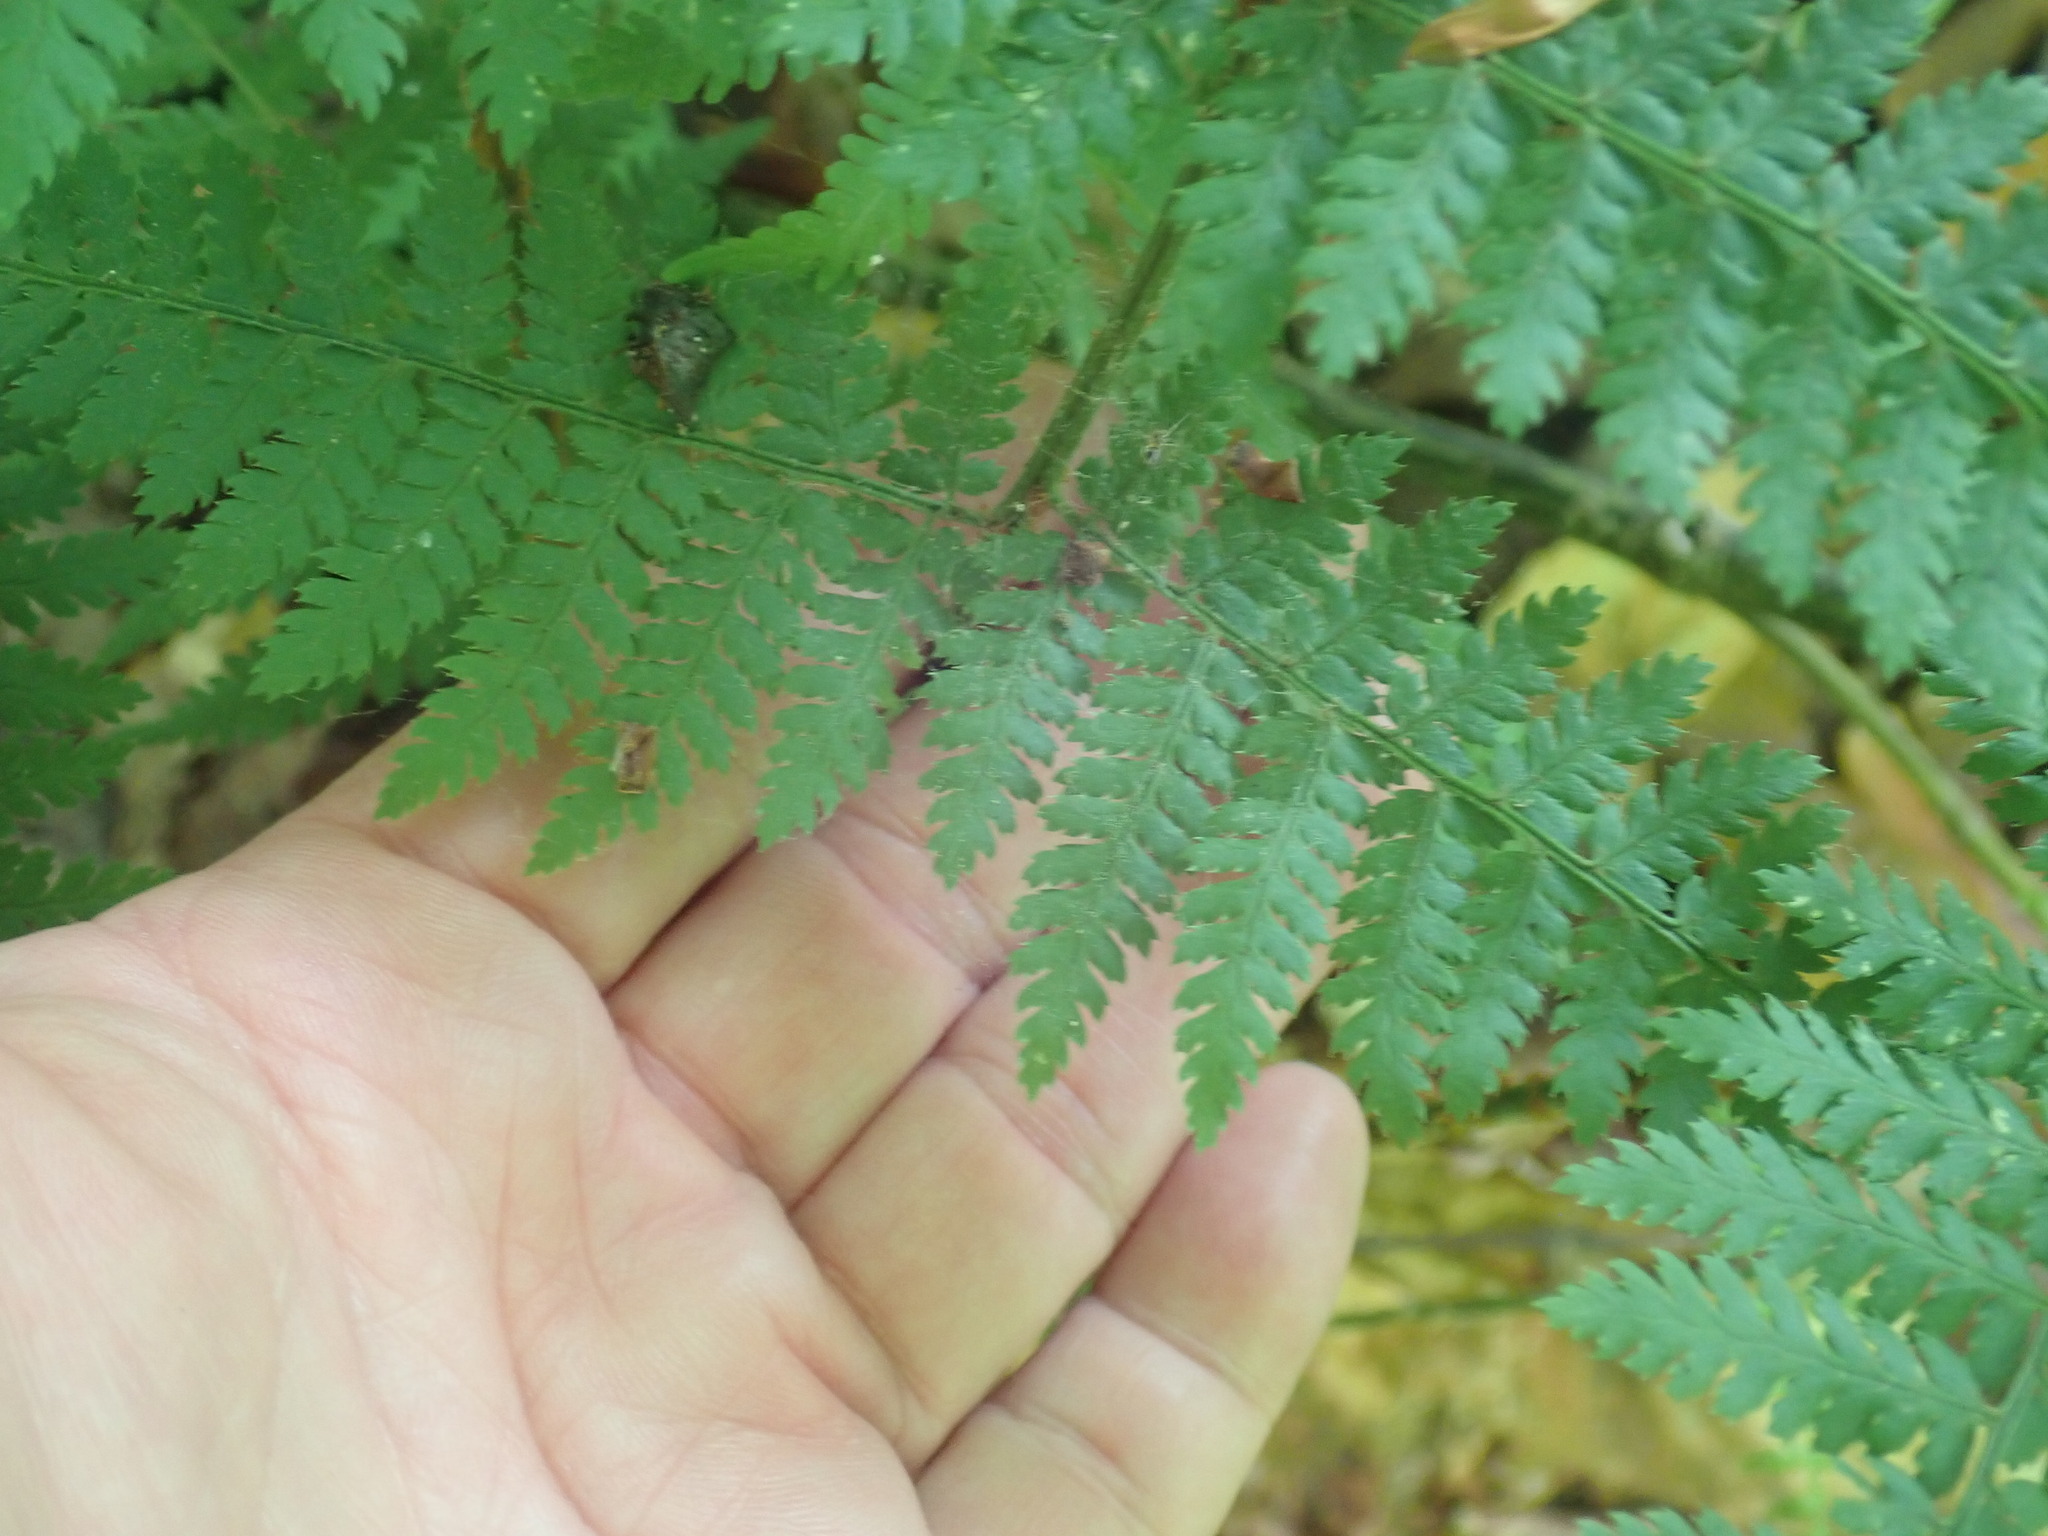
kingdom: Plantae
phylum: Tracheophyta
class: Polypodiopsida
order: Polypodiales
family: Dryopteridaceae
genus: Dryopteris
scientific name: Dryopteris intermedia
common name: Evergreen wood fern
